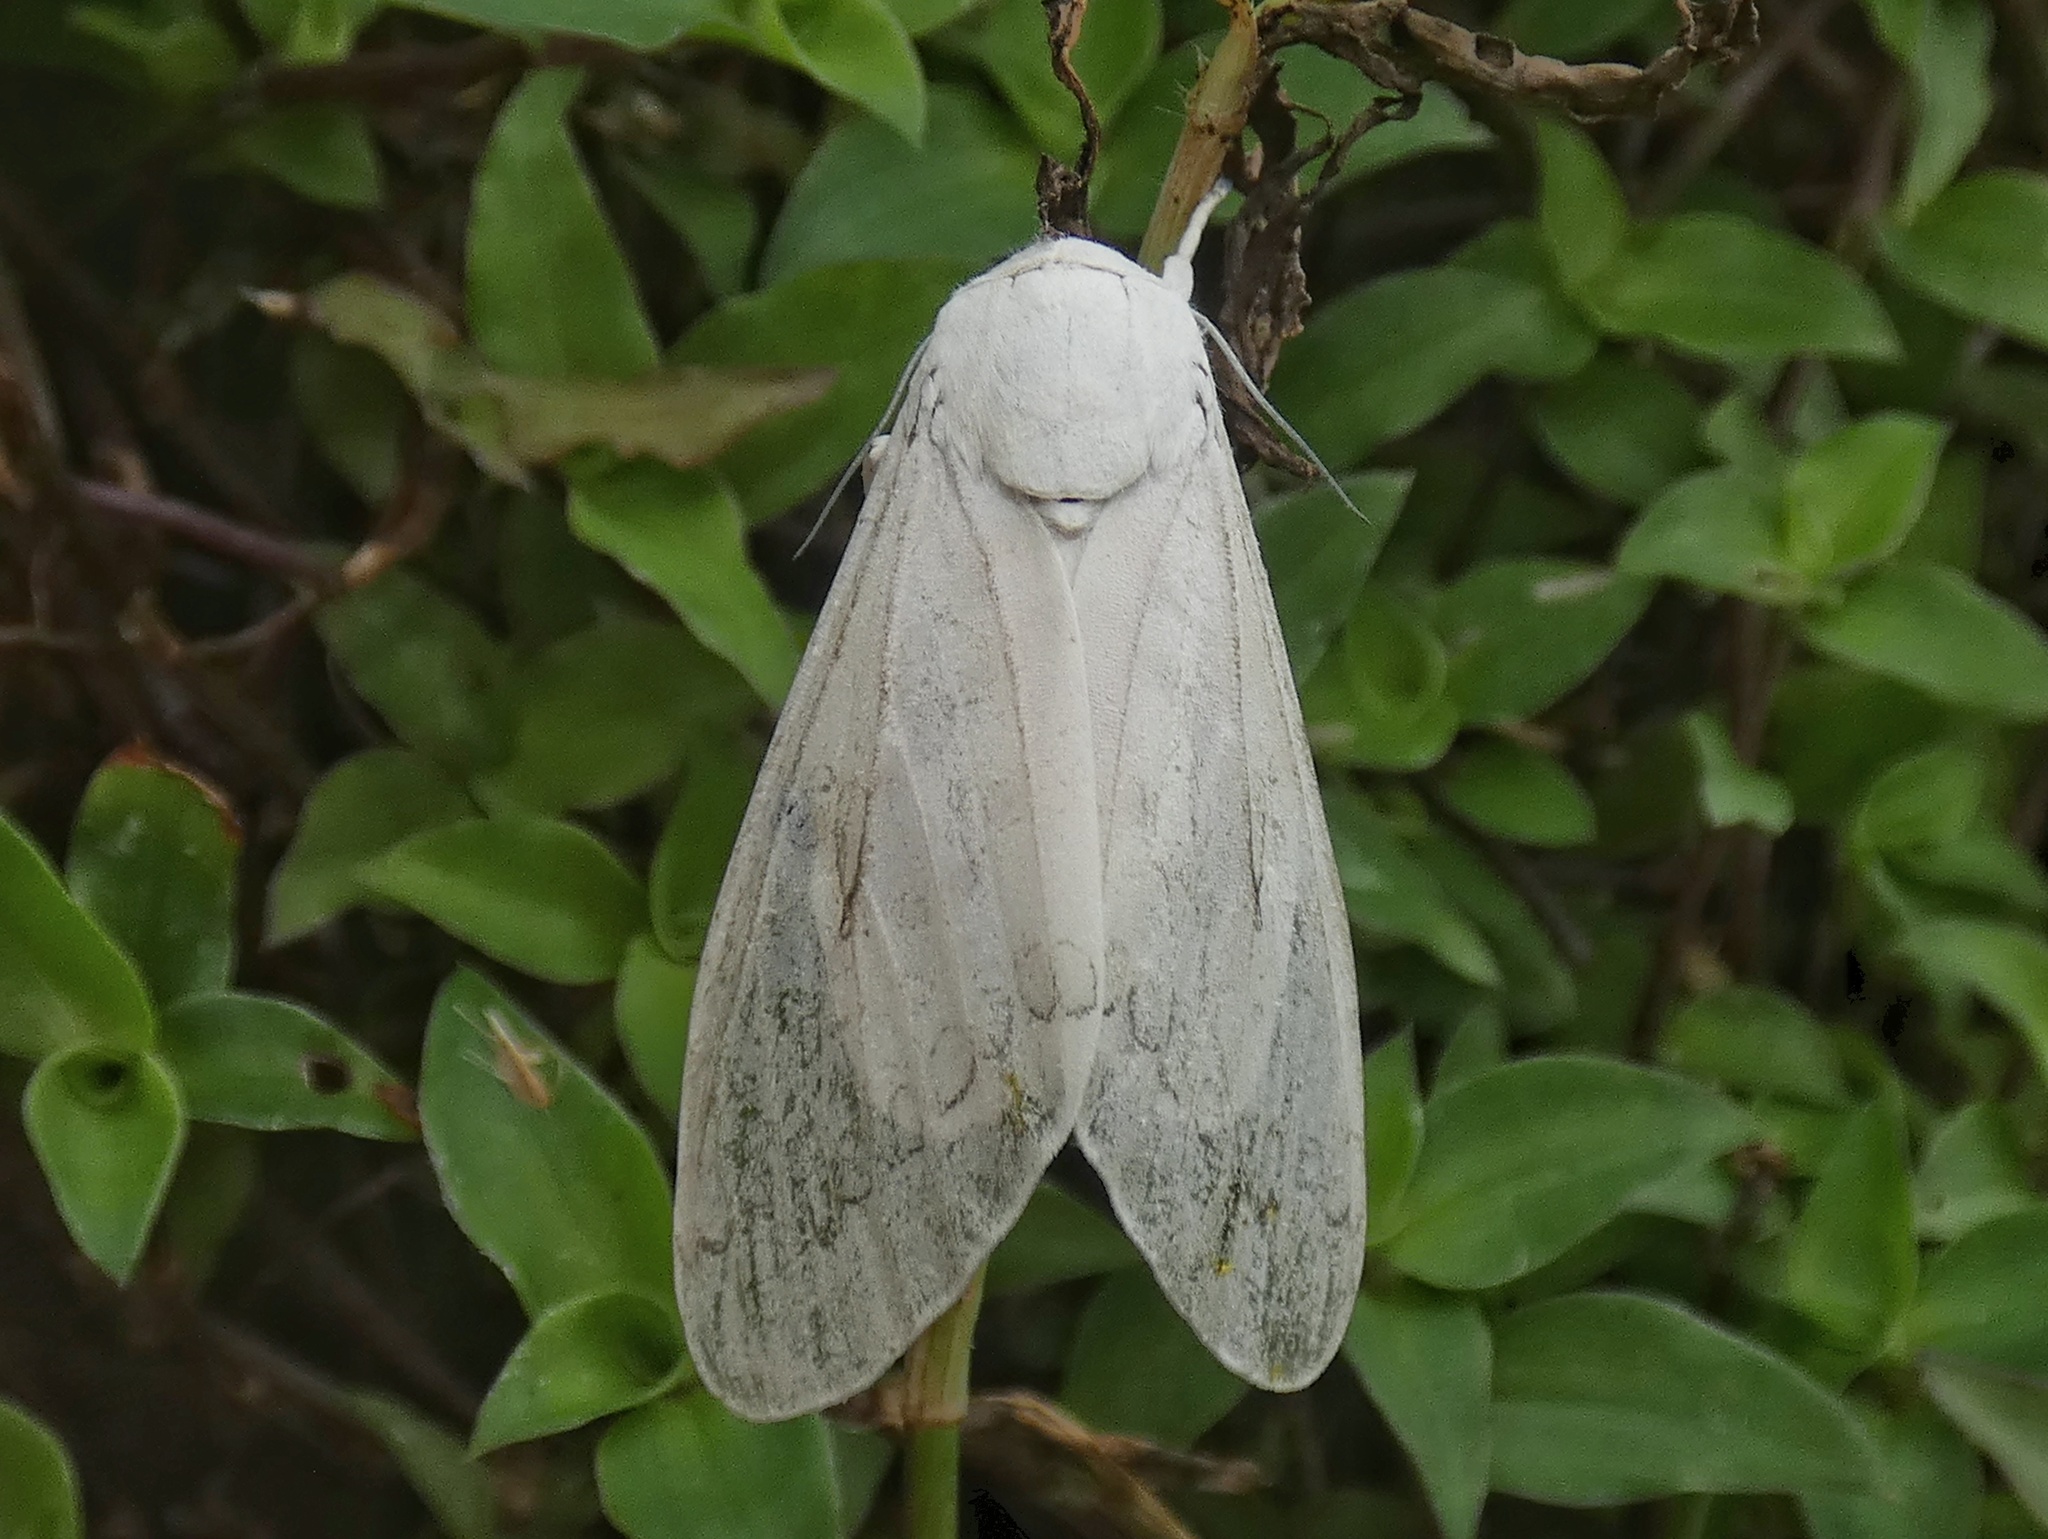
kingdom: Animalia
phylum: Arthropoda
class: Insecta
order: Lepidoptera
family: Erebidae
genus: Hypercompe
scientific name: Hypercompe muzina
